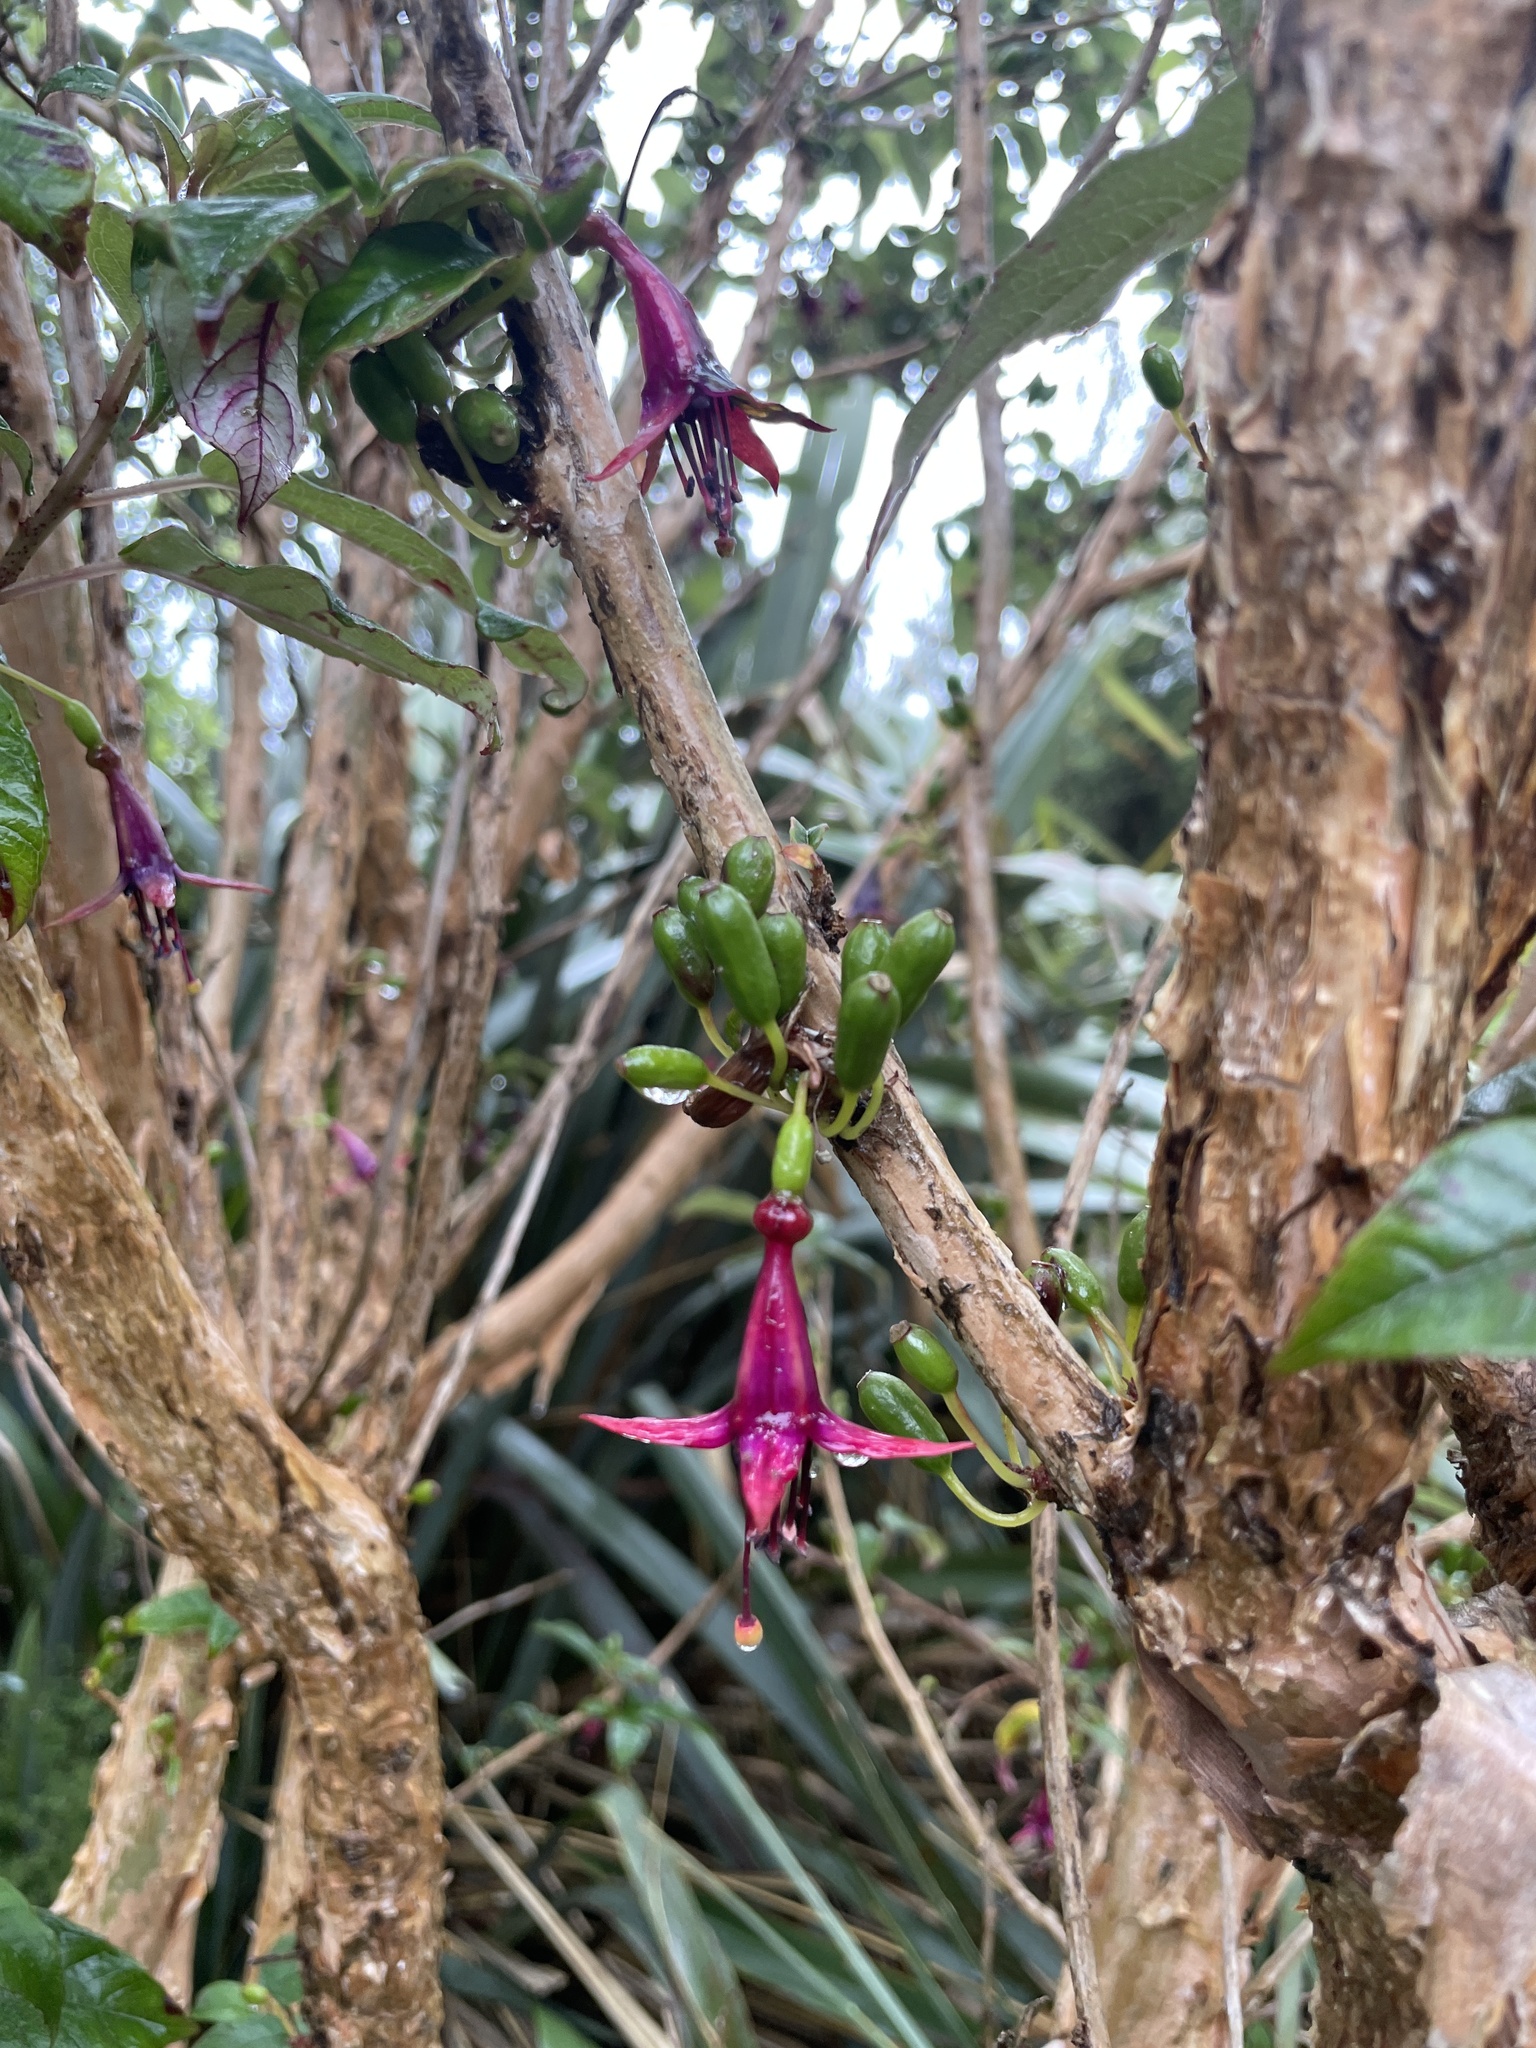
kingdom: Plantae
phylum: Tracheophyta
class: Magnoliopsida
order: Myrtales
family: Onagraceae
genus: Fuchsia
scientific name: Fuchsia excorticata
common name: Tree fuchsia
